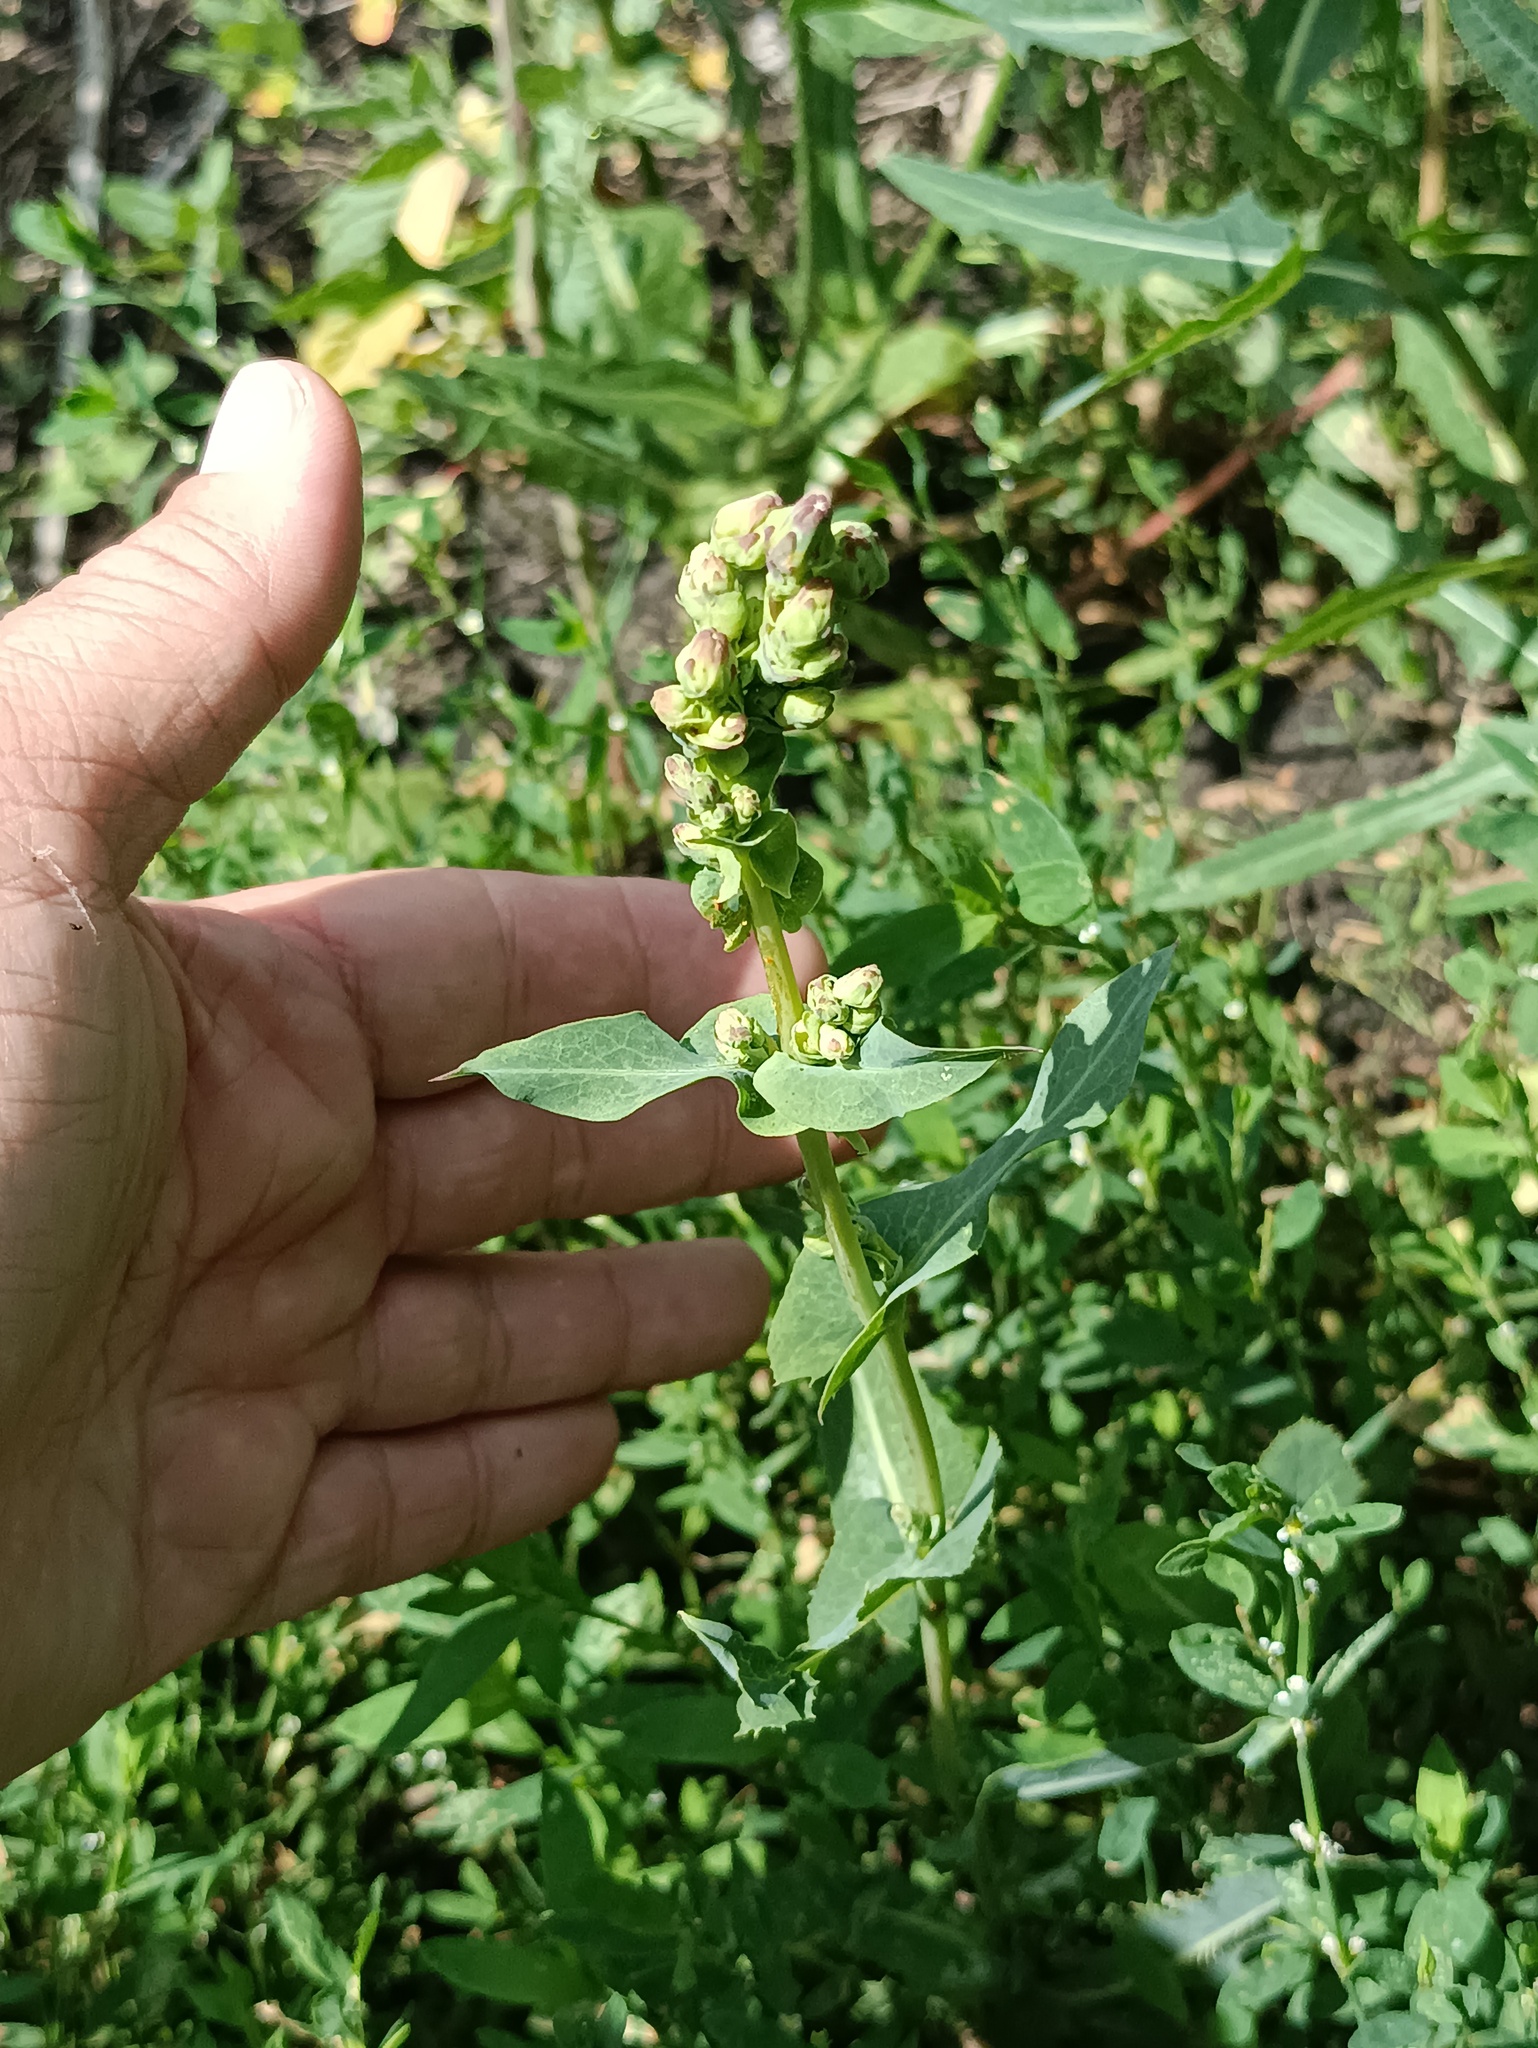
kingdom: Plantae
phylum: Tracheophyta
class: Magnoliopsida
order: Asterales
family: Asteraceae
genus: Lactuca
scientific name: Lactuca serriola
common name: Prickly lettuce
